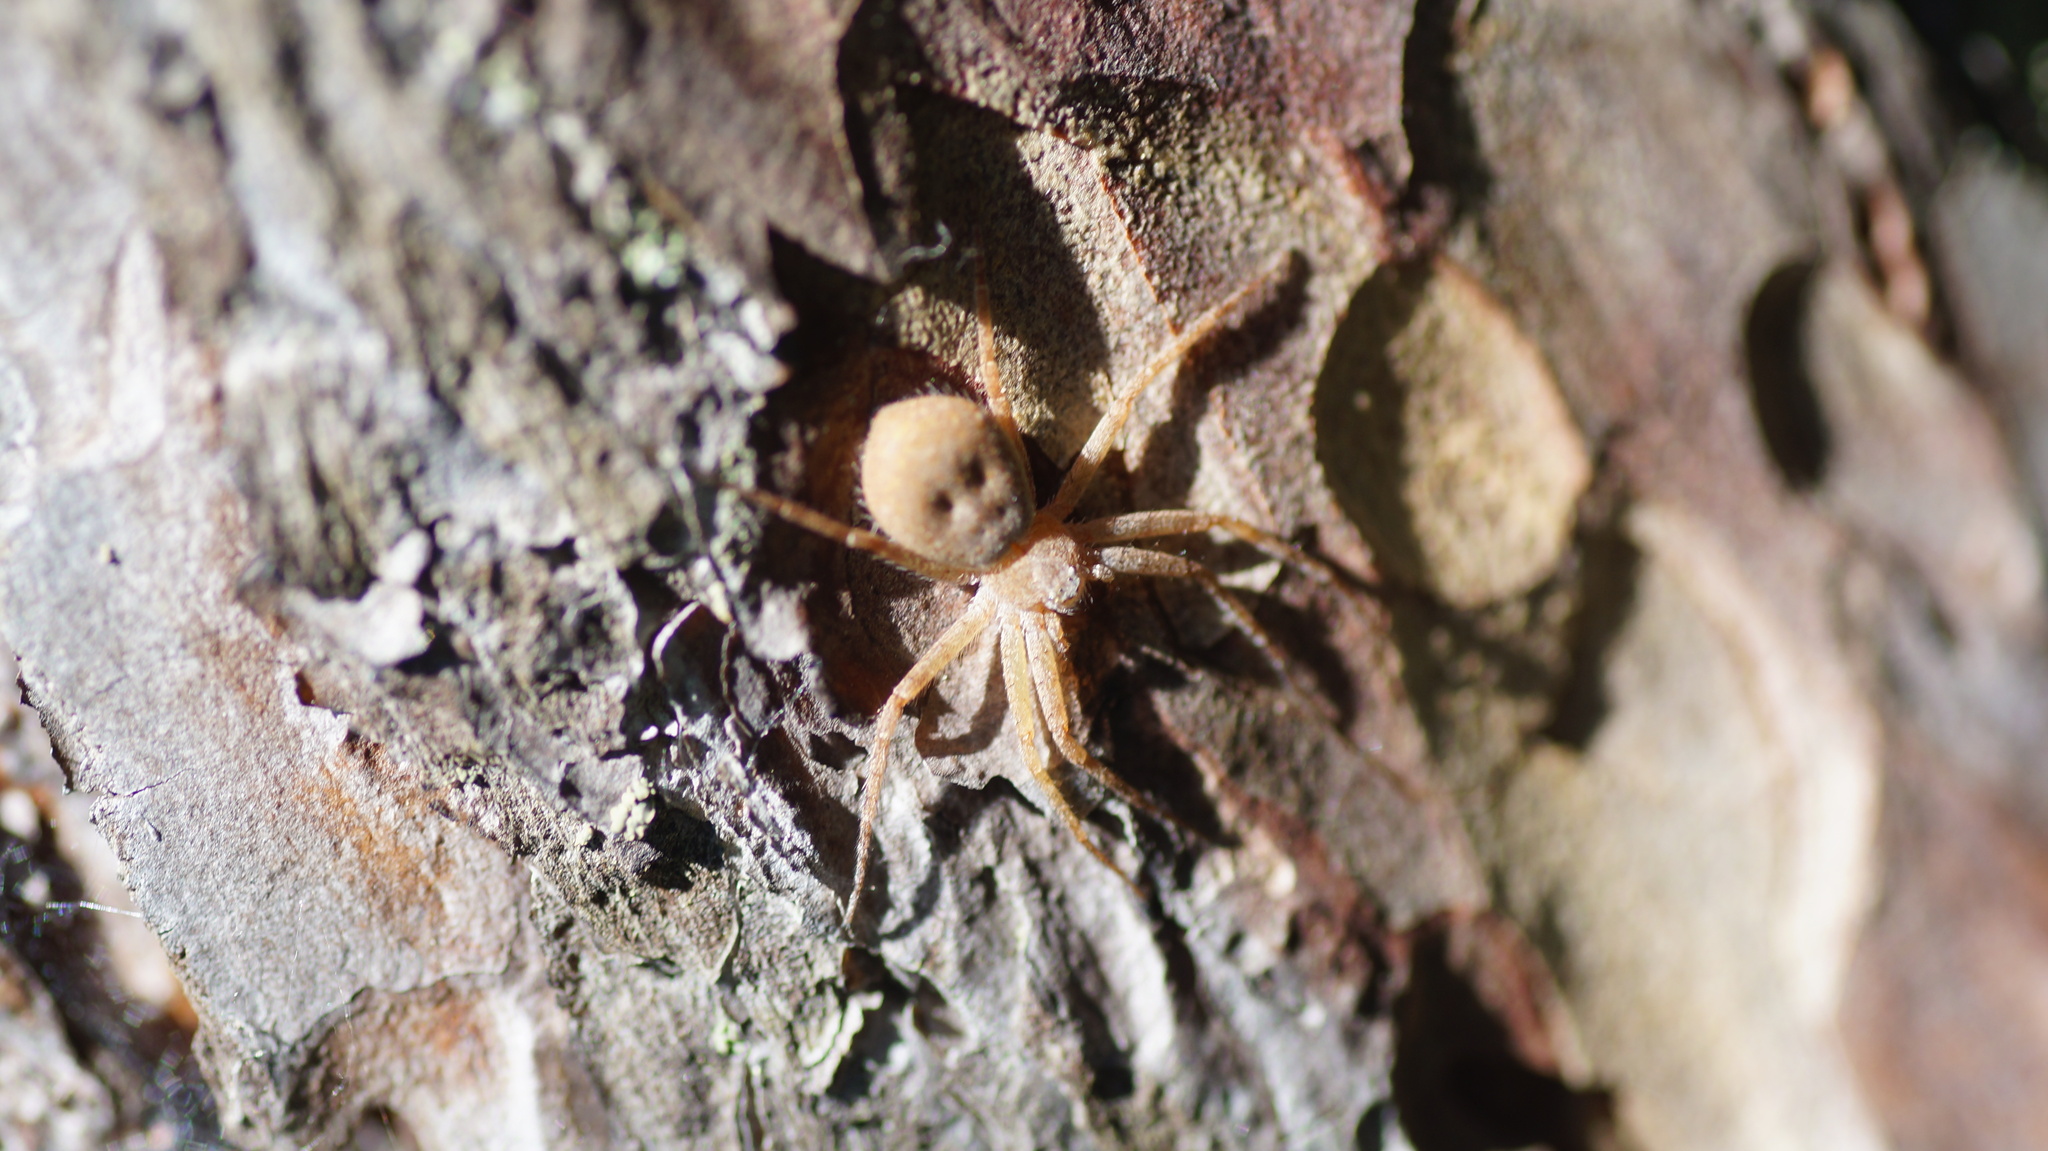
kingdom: Animalia
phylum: Arthropoda
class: Arachnida
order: Araneae
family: Philodromidae
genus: Philodromus
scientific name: Philodromus fuscomarginatus
